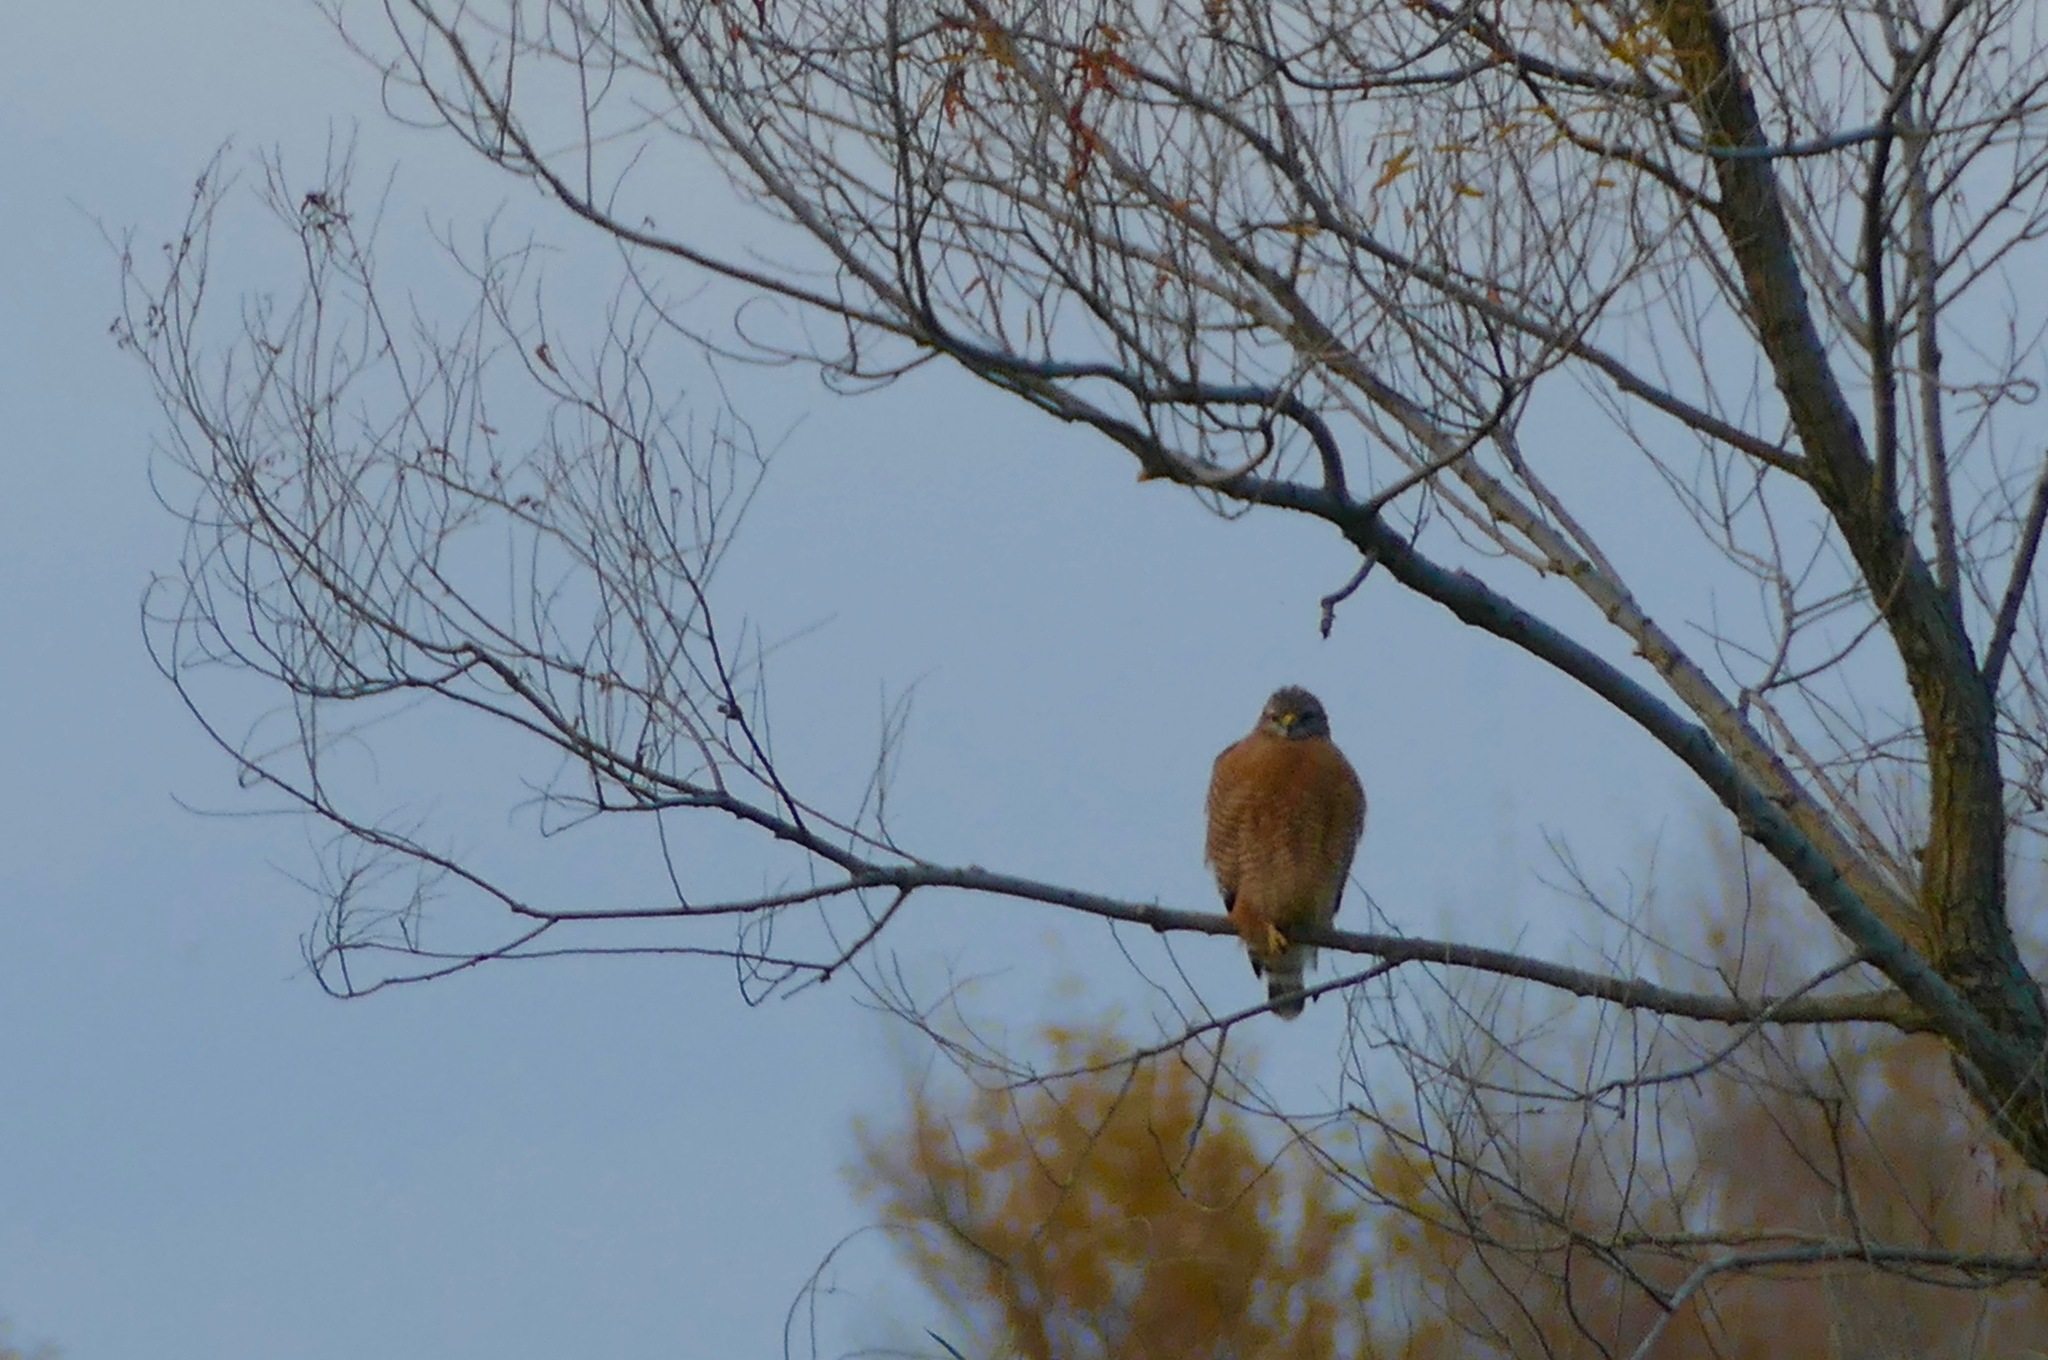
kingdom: Animalia
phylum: Chordata
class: Aves
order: Accipitriformes
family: Accipitridae
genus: Buteo
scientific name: Buteo lineatus
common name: Red-shouldered hawk
